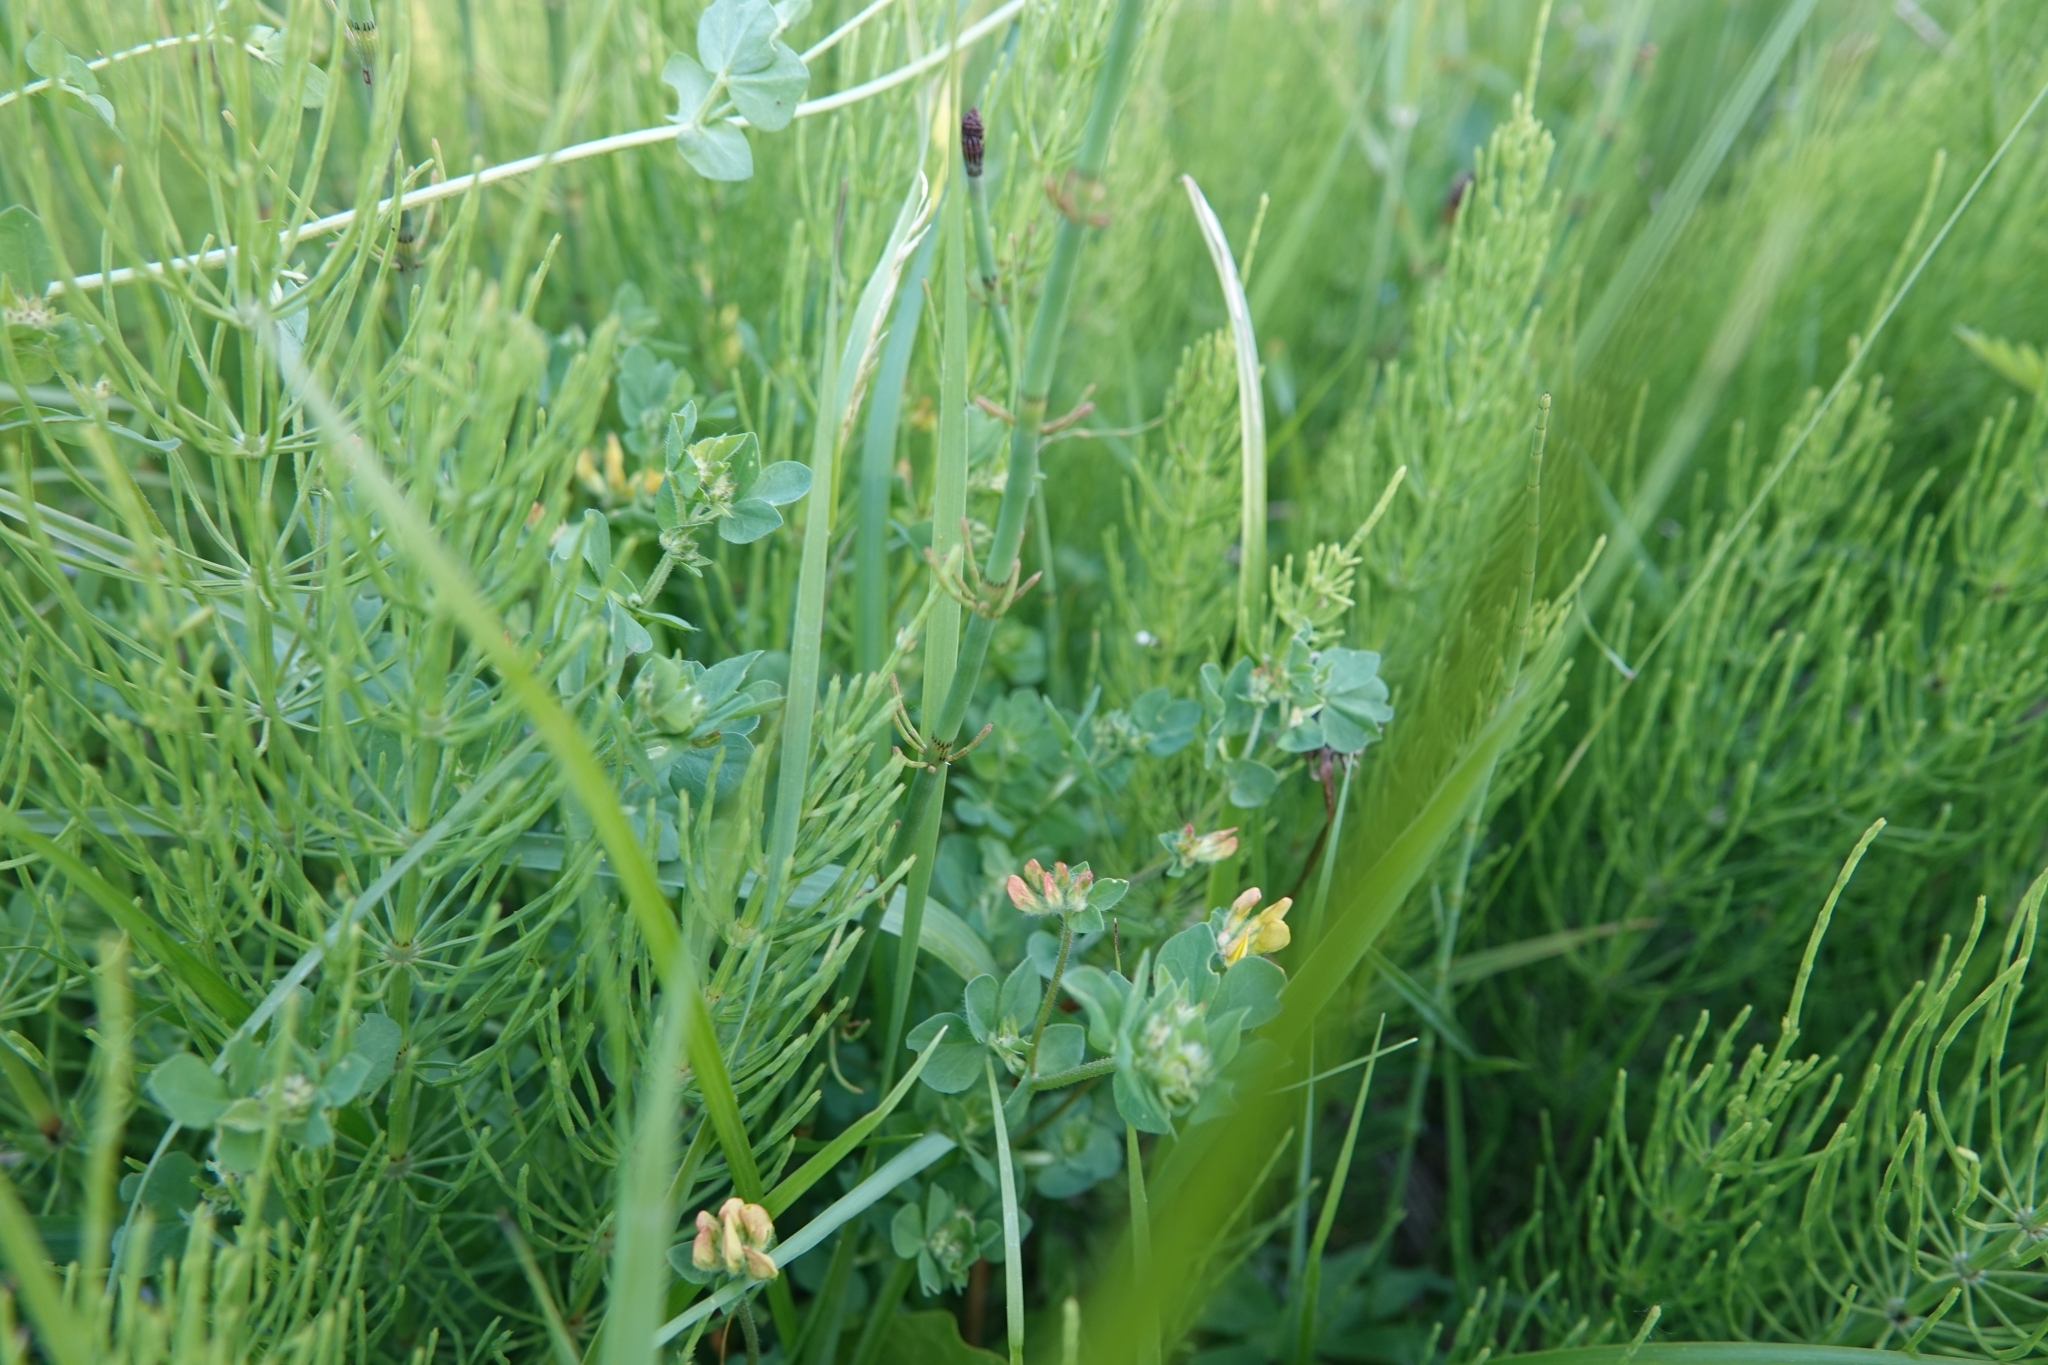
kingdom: Plantae
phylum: Tracheophyta
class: Magnoliopsida
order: Fabales
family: Fabaceae
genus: Lotus
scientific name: Lotus corniculatus
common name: Common bird's-foot-trefoil
